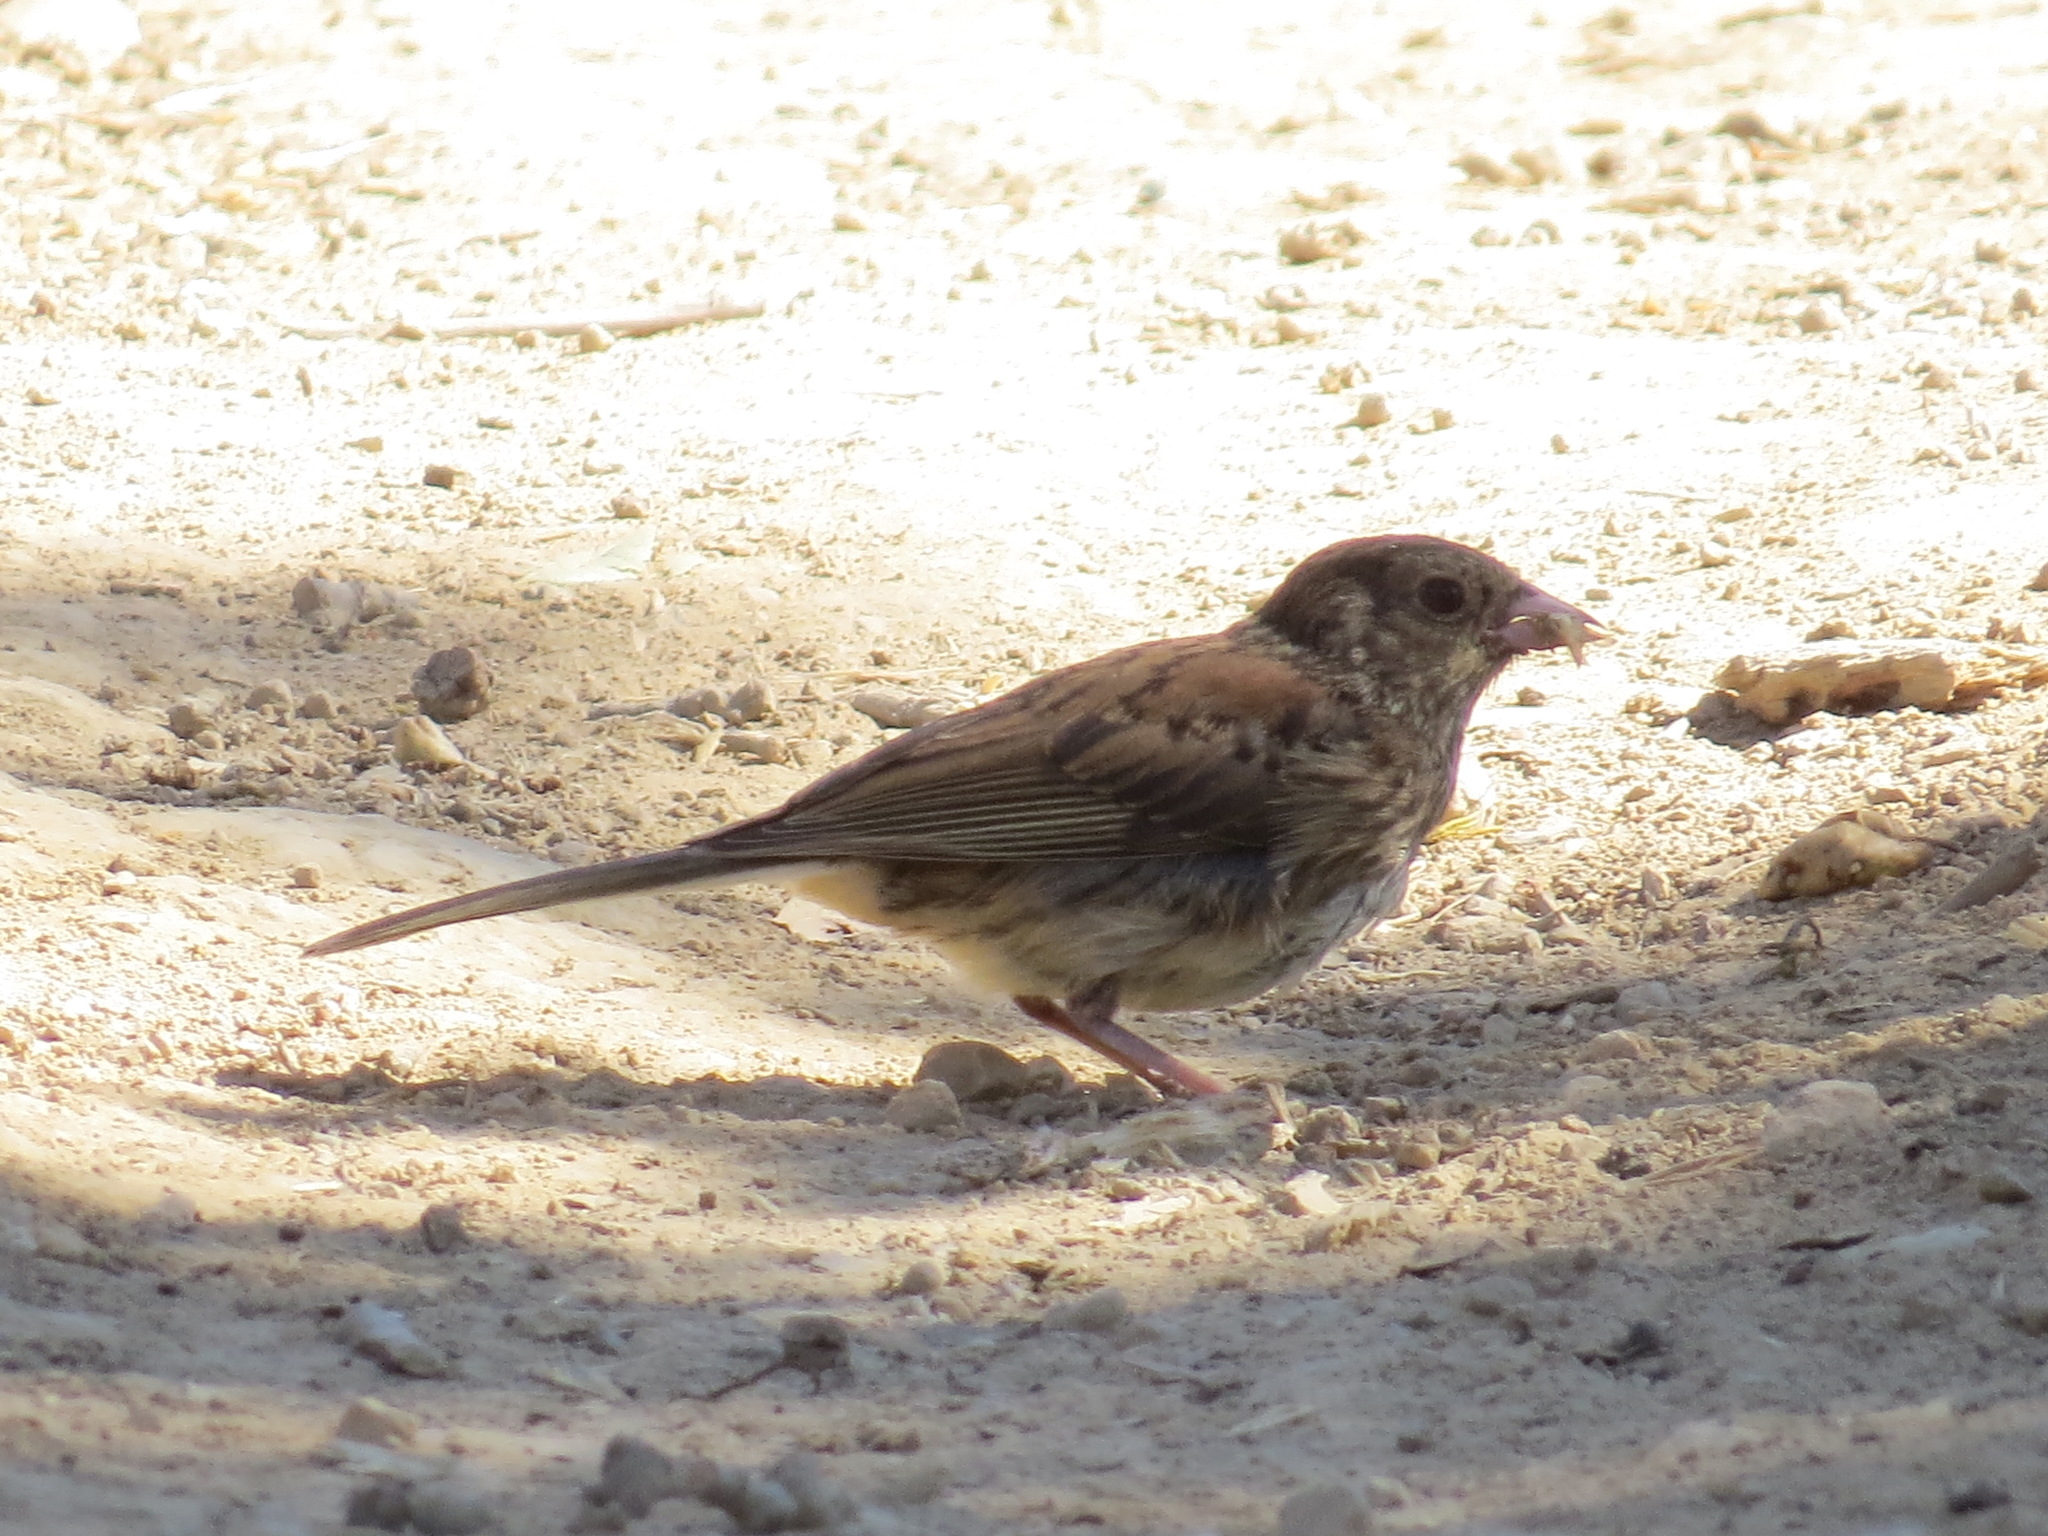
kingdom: Animalia
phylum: Chordata
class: Aves
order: Passeriformes
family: Passerellidae
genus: Junco
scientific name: Junco hyemalis
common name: Dark-eyed junco
